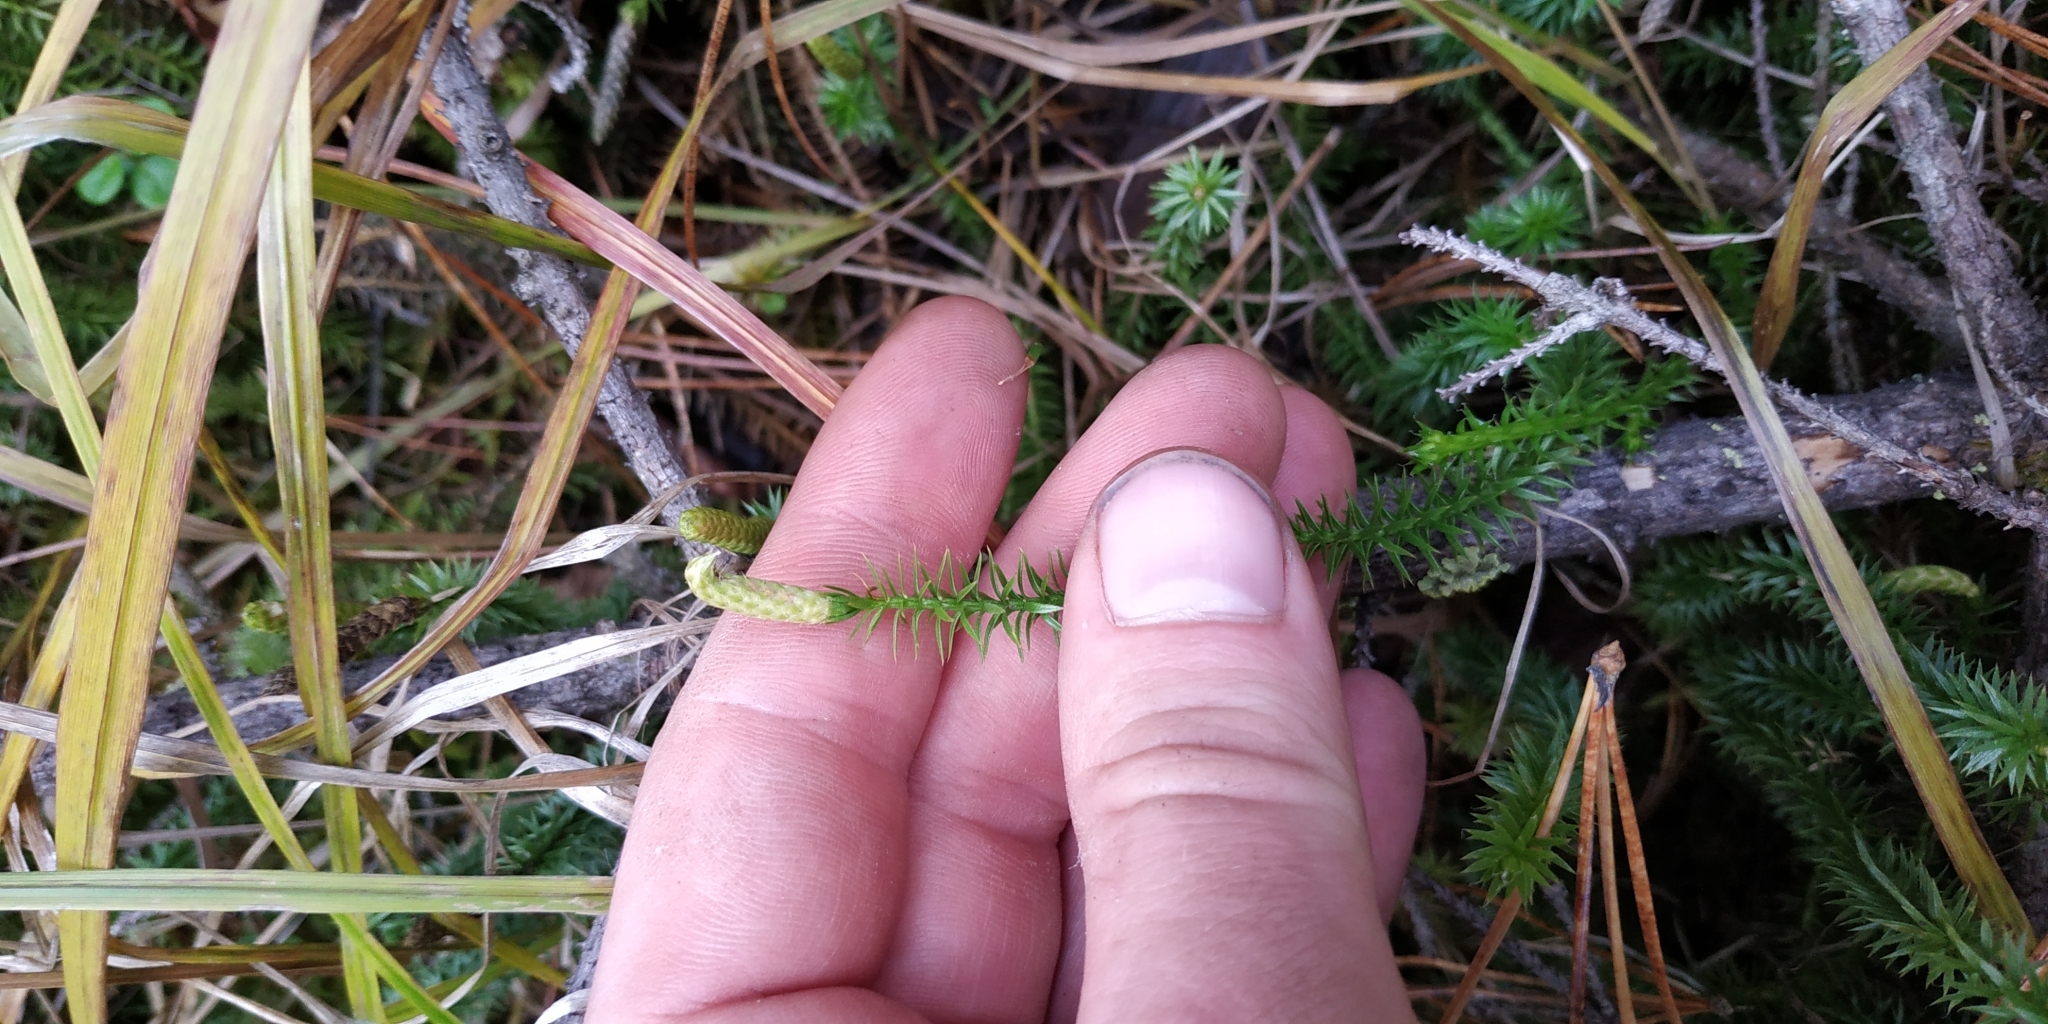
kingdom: Plantae
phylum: Tracheophyta
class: Lycopodiopsida
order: Lycopodiales
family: Lycopodiaceae
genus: Spinulum
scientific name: Spinulum annotinum
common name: Interrupted club-moss
